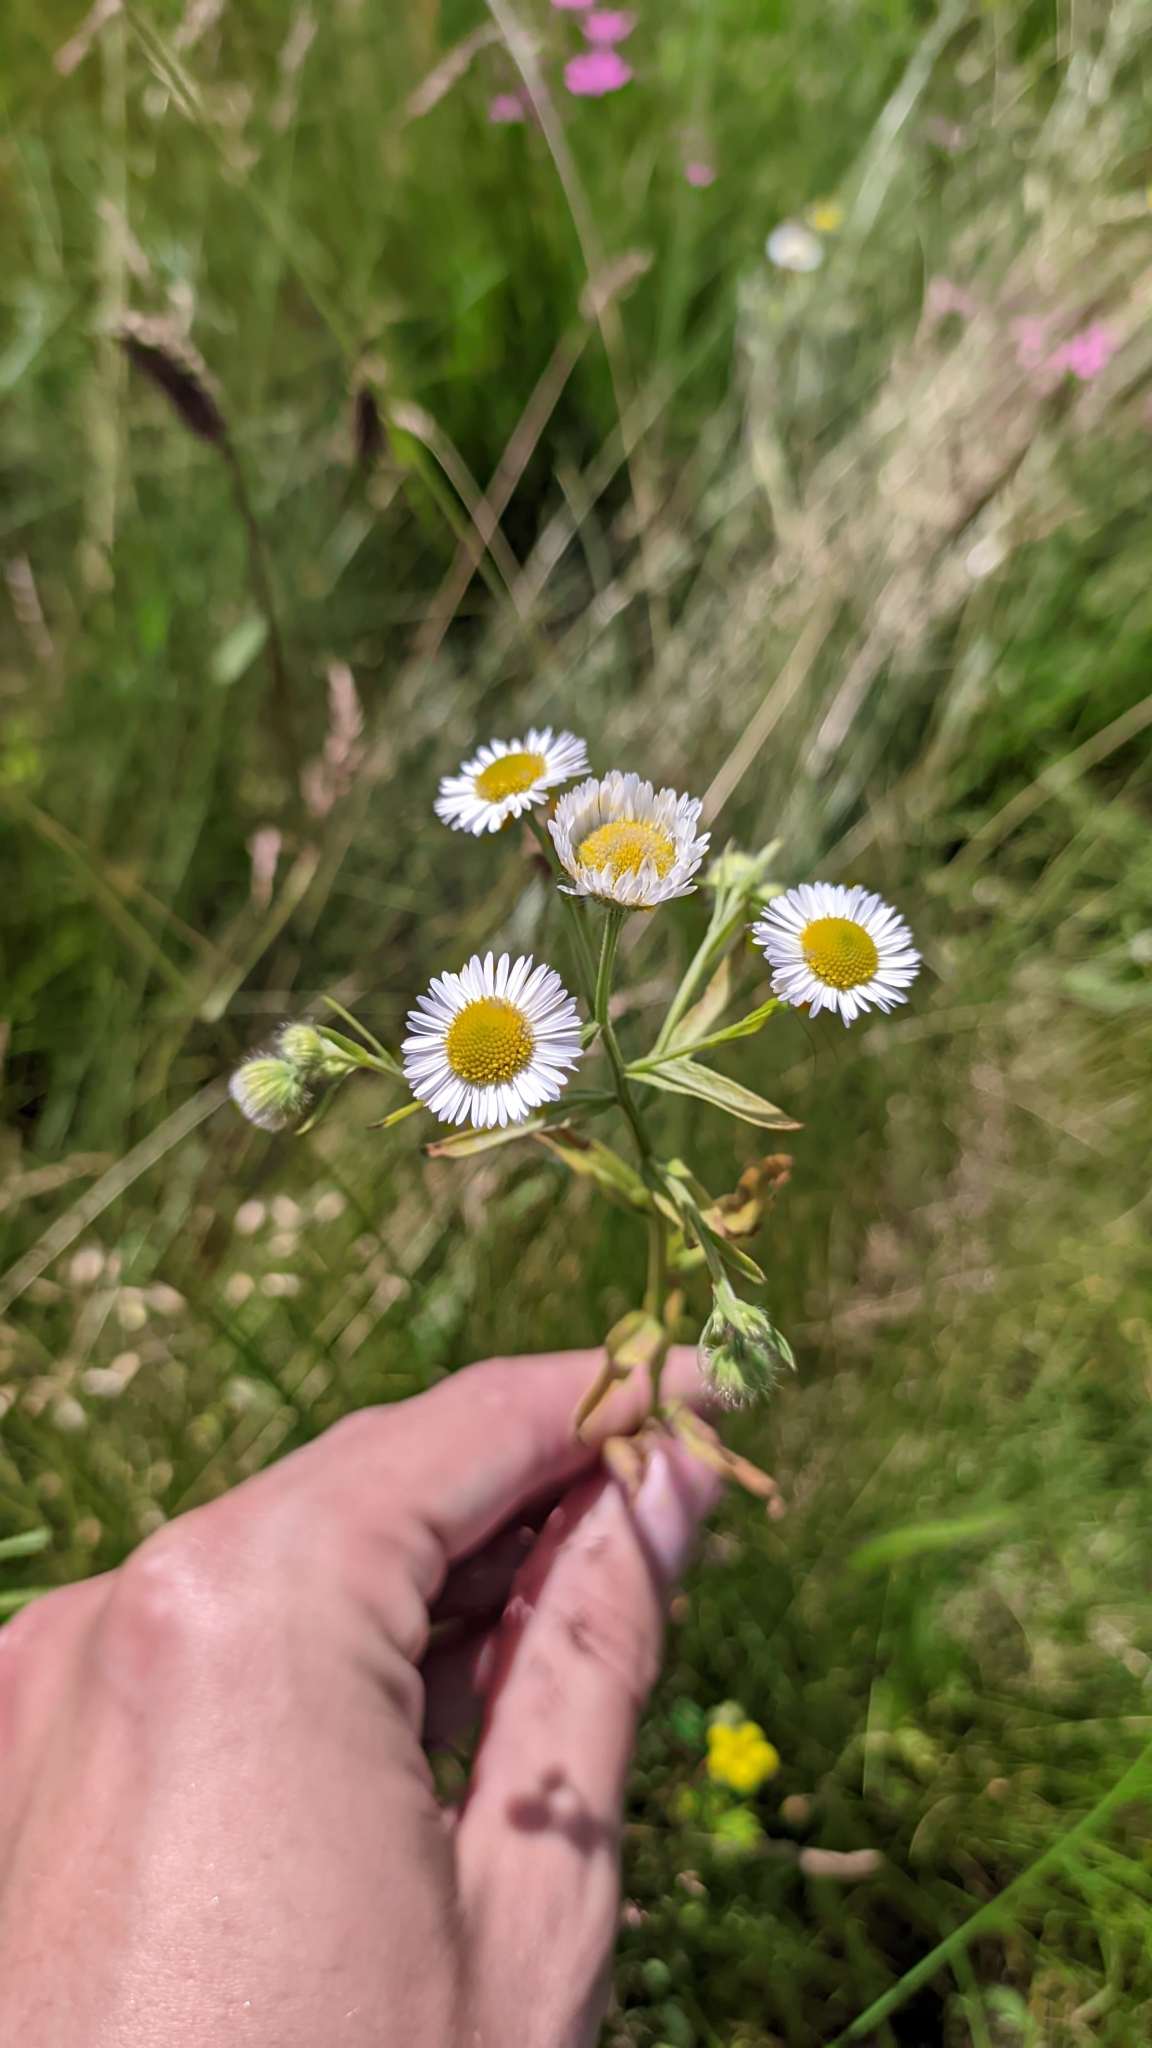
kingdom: Plantae
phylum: Tracheophyta
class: Magnoliopsida
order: Asterales
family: Asteraceae
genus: Erigeron
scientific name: Erigeron strigosus
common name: Common eastern fleabane
